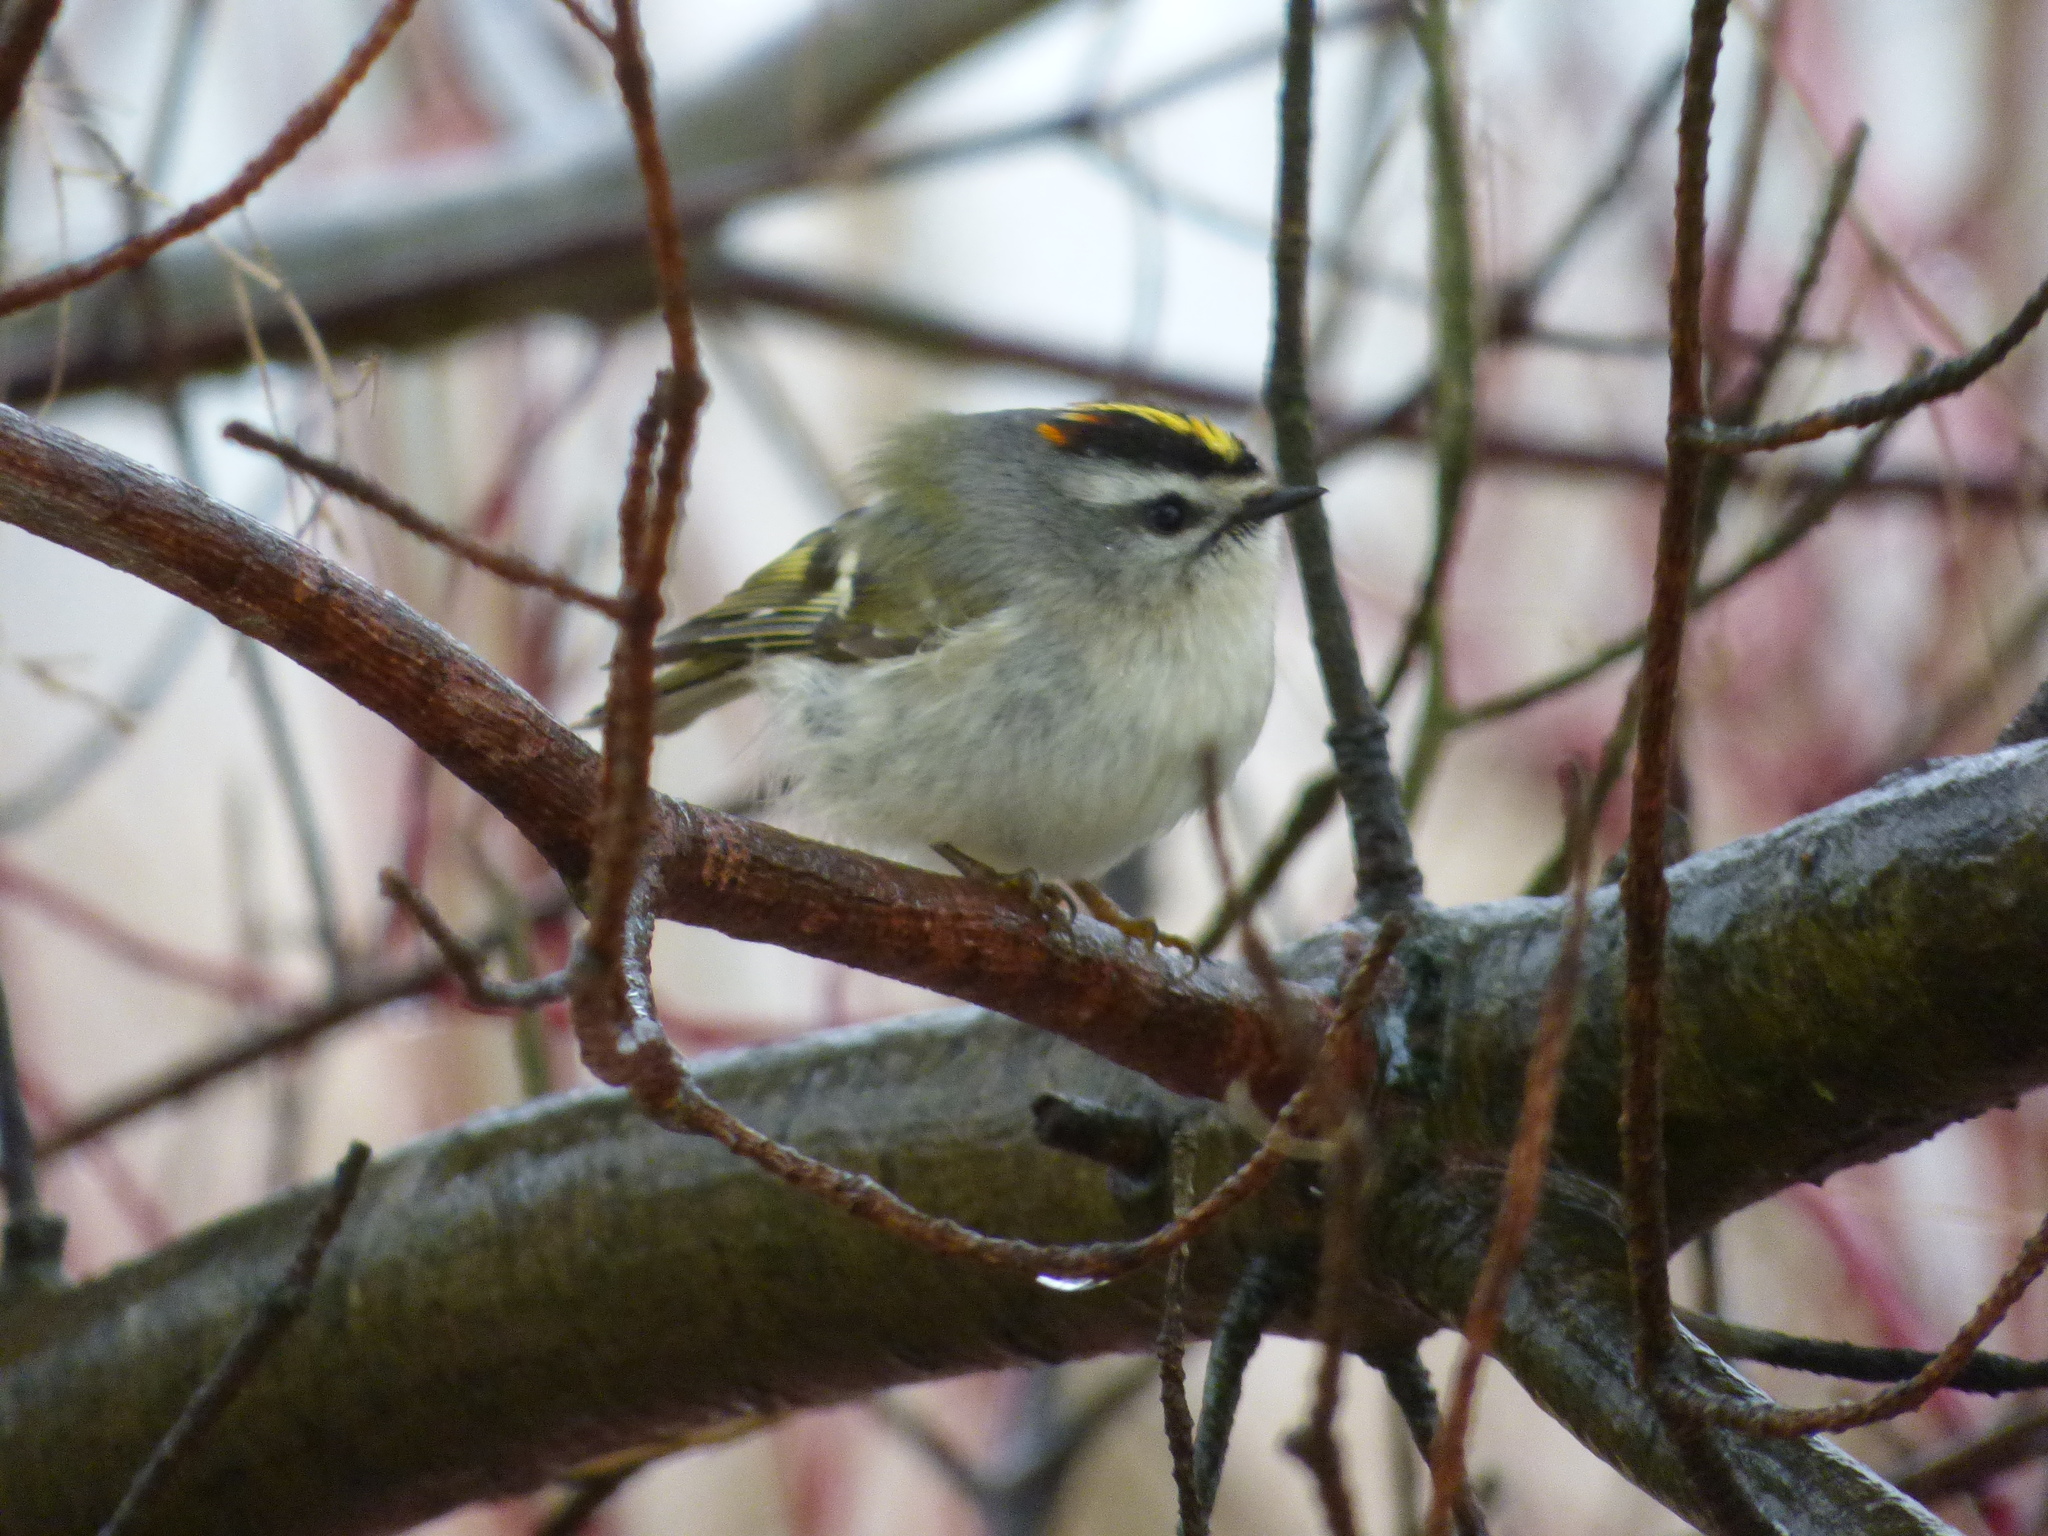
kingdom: Animalia
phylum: Chordata
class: Aves
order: Passeriformes
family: Regulidae
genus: Regulus
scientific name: Regulus satrapa
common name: Golden-crowned kinglet
